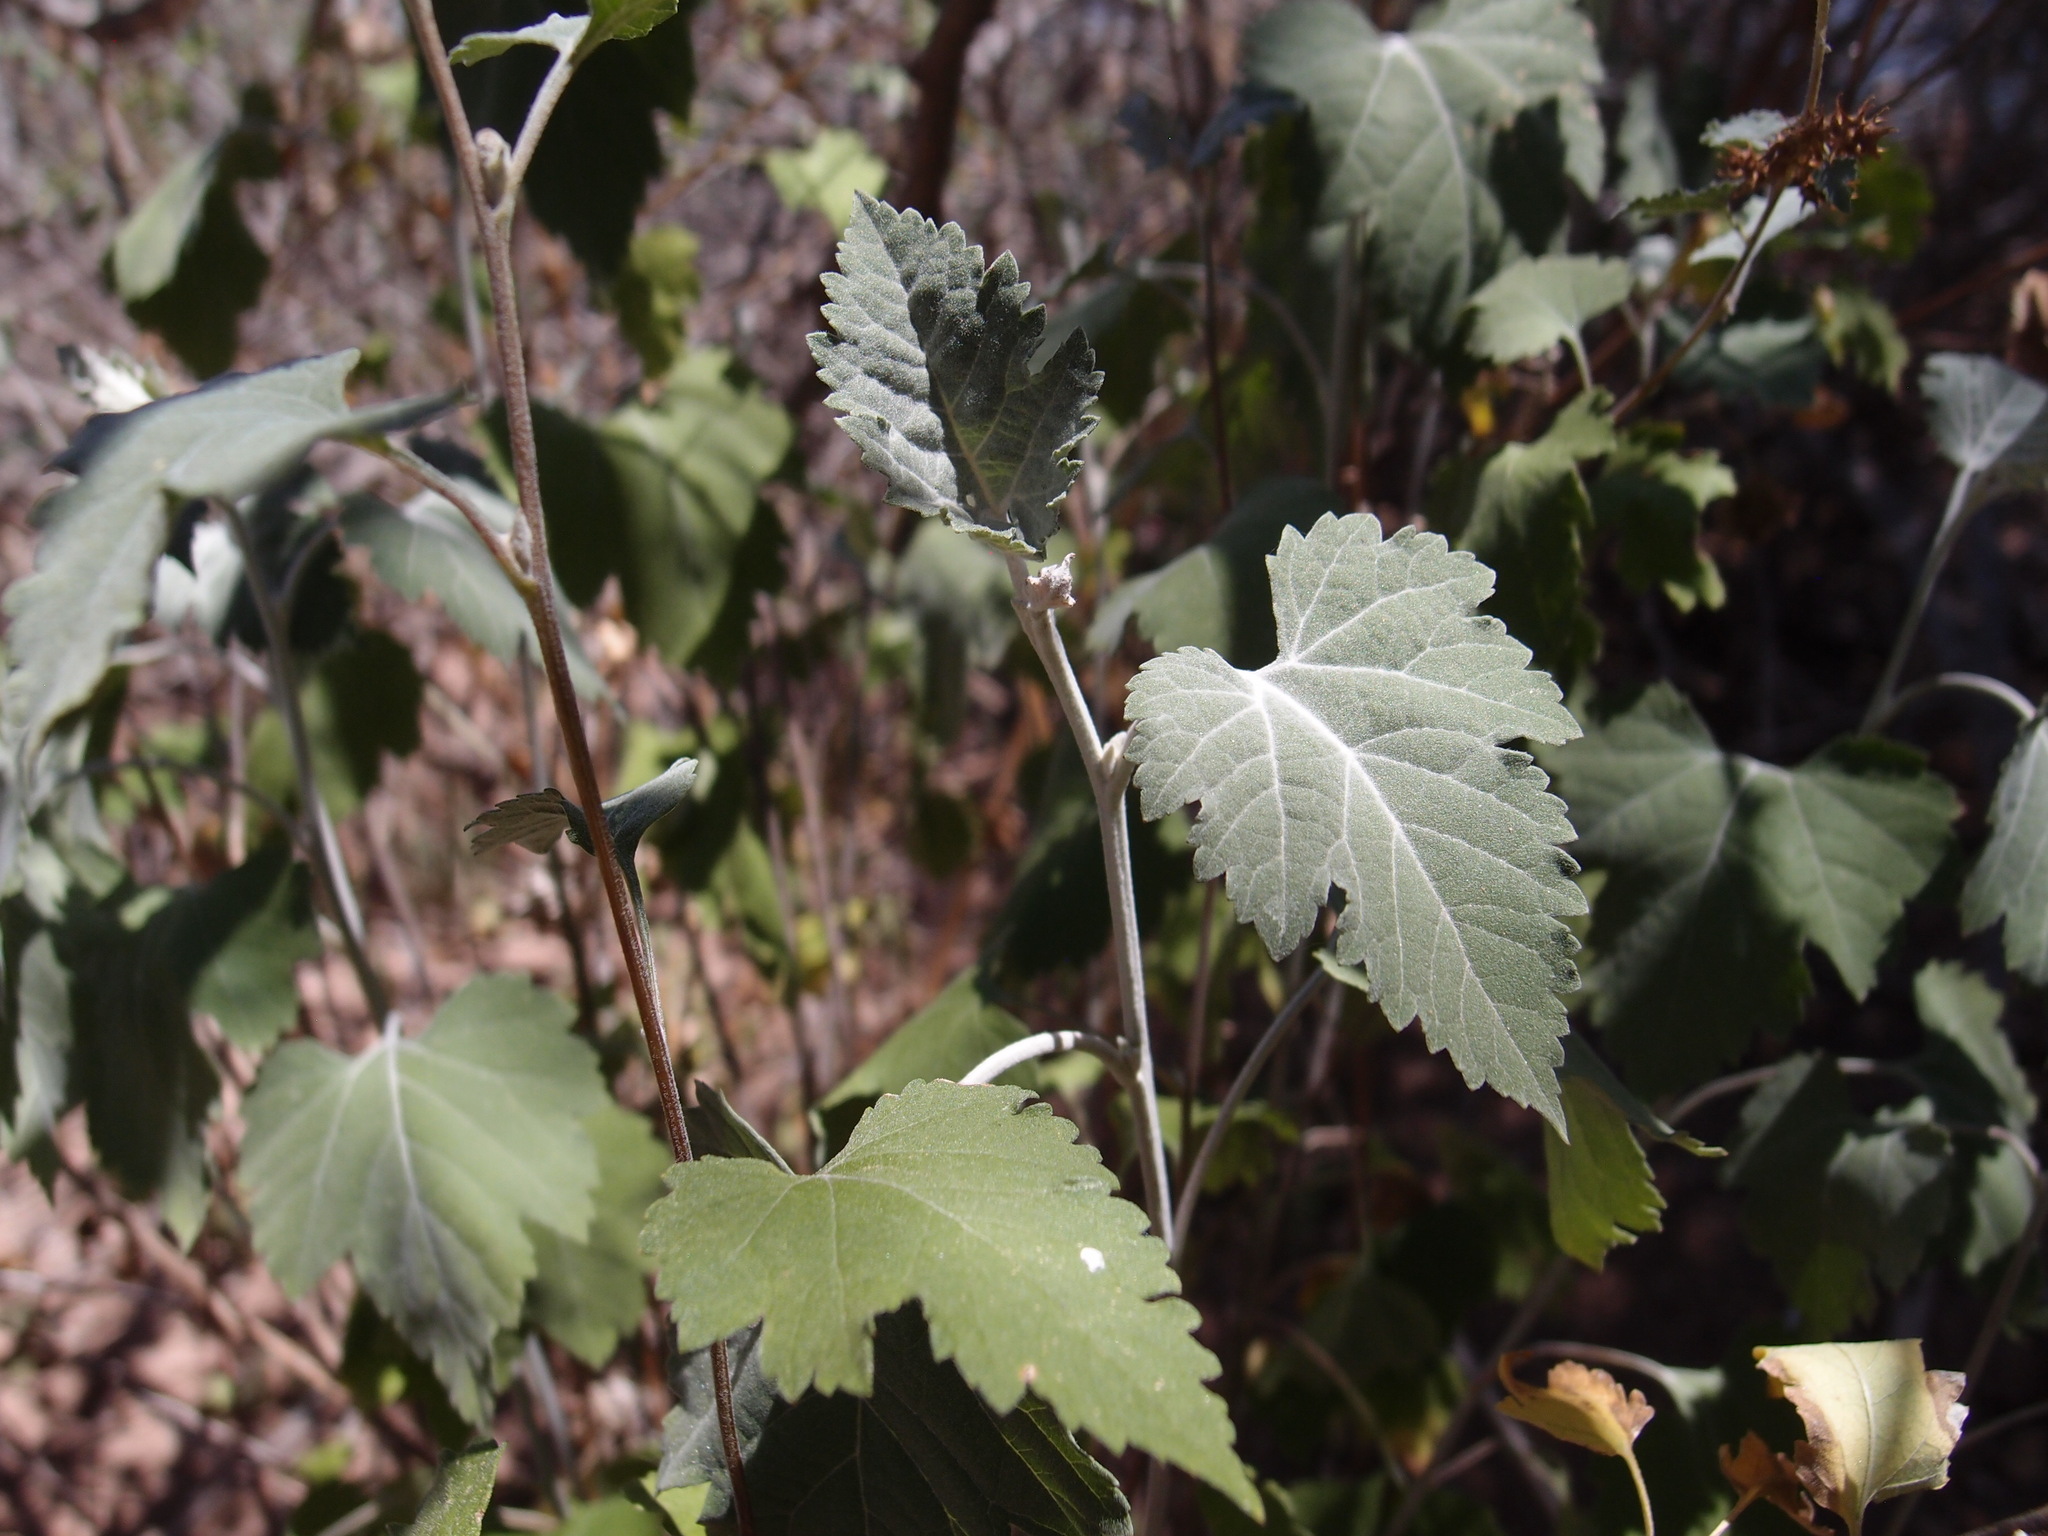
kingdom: Plantae
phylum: Tracheophyta
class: Magnoliopsida
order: Asterales
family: Asteraceae
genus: Ambrosia
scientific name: Ambrosia cordifolia
